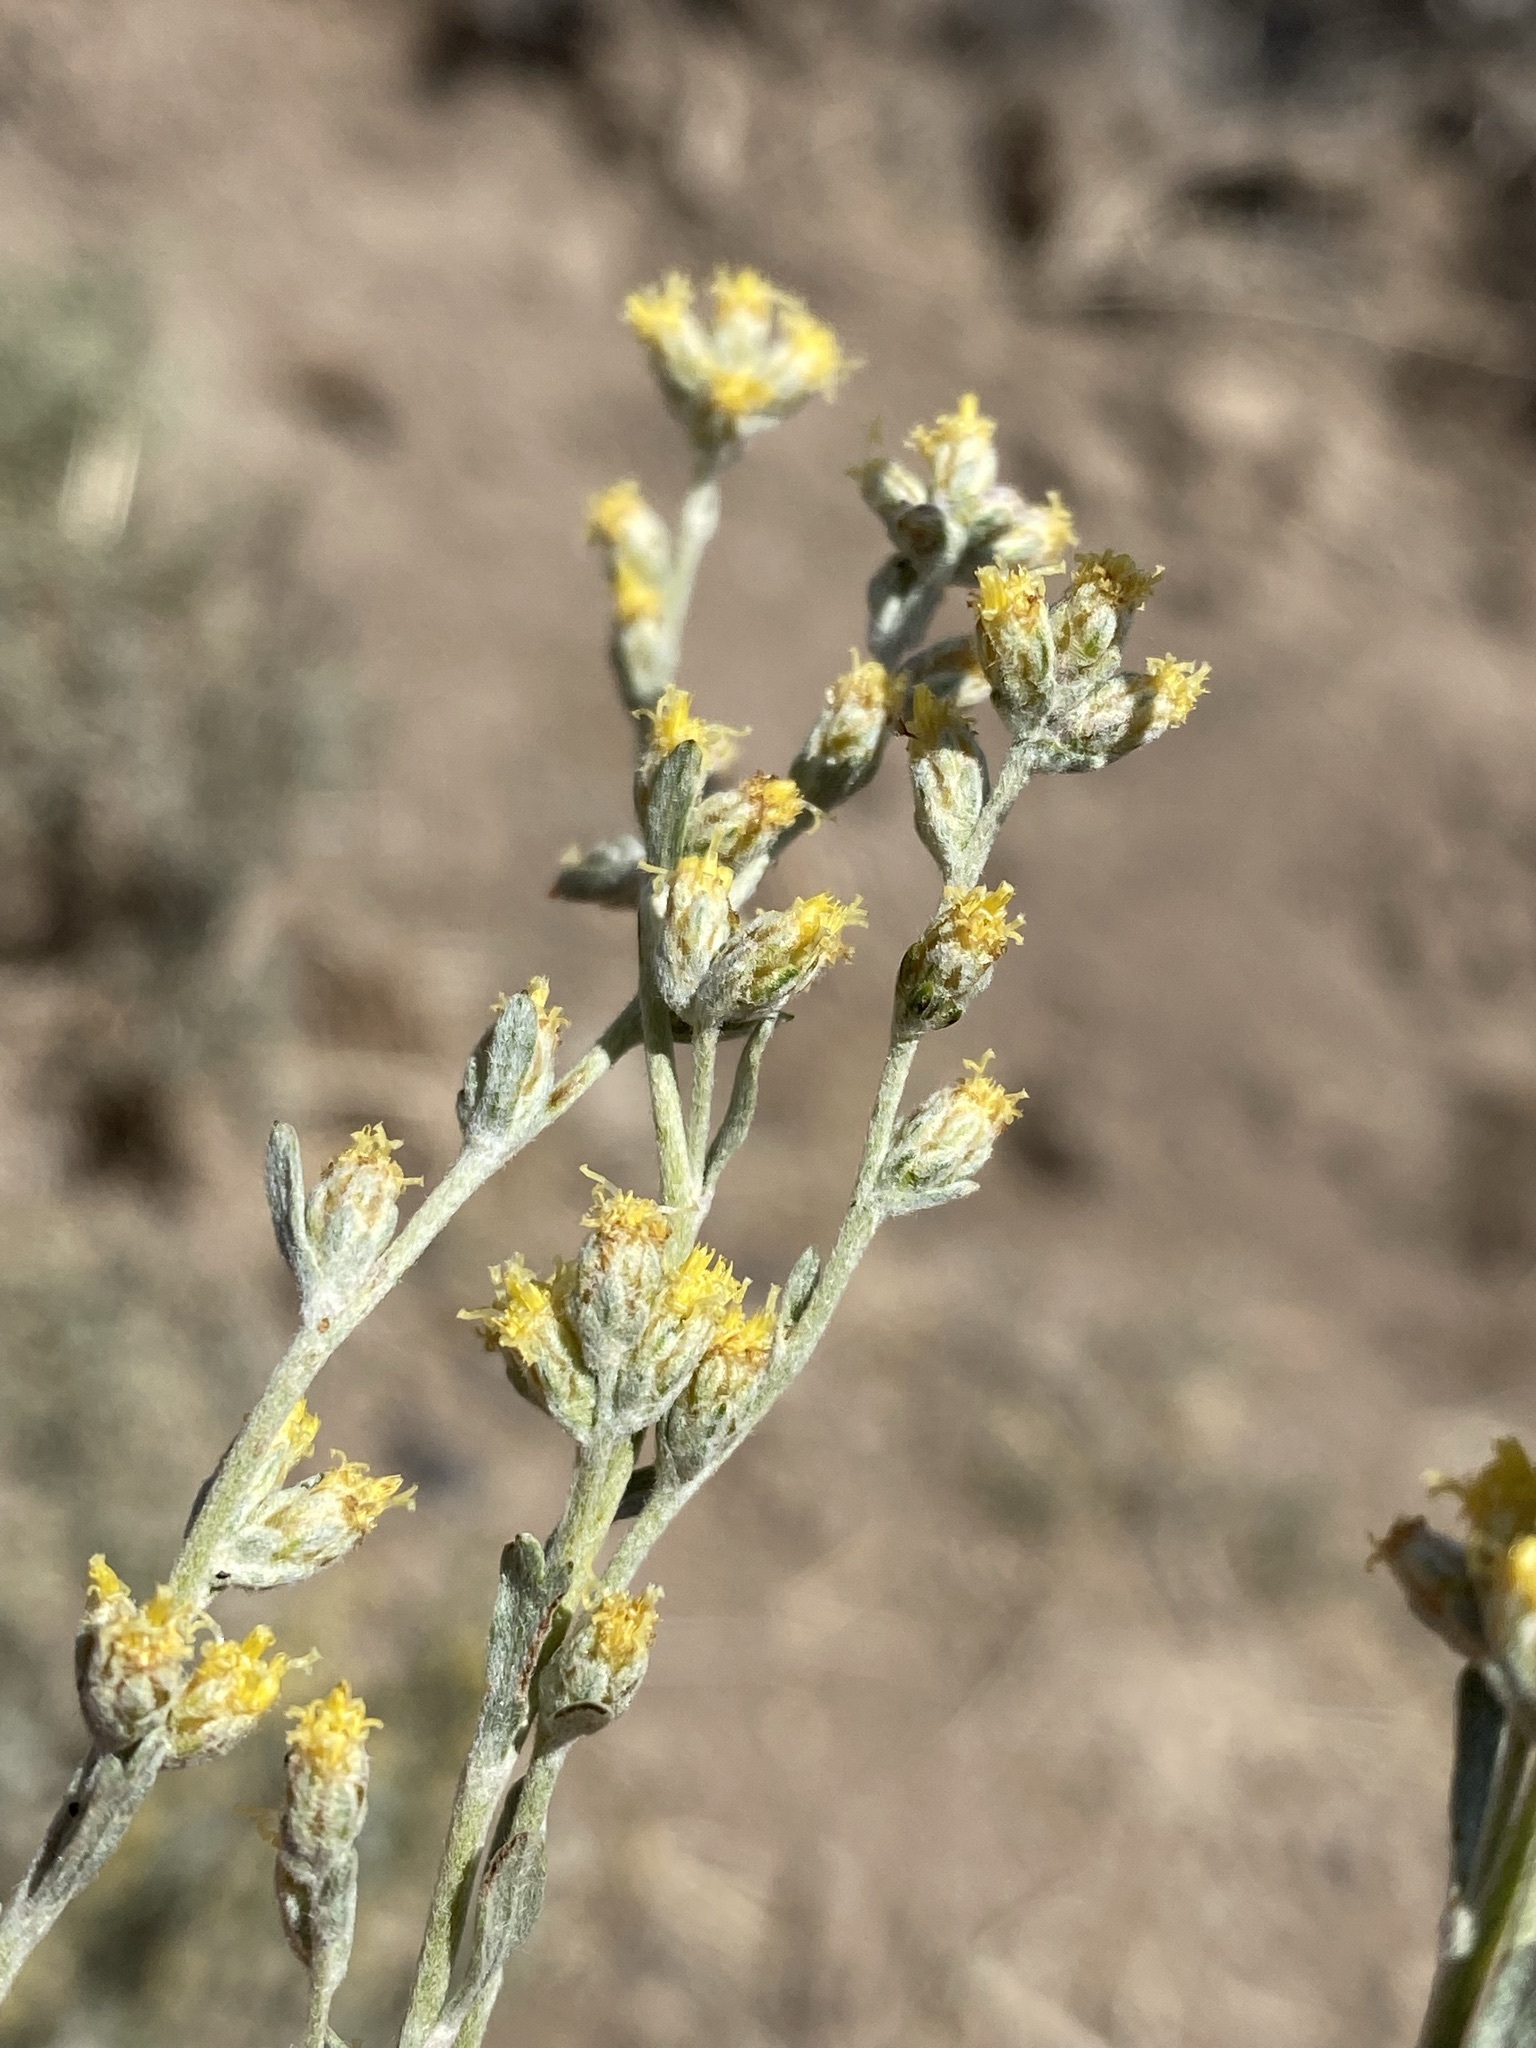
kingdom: Plantae
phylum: Tracheophyta
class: Magnoliopsida
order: Asterales
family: Asteraceae
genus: Artemisia
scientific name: Artemisia arbuscula
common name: Sagebrush
